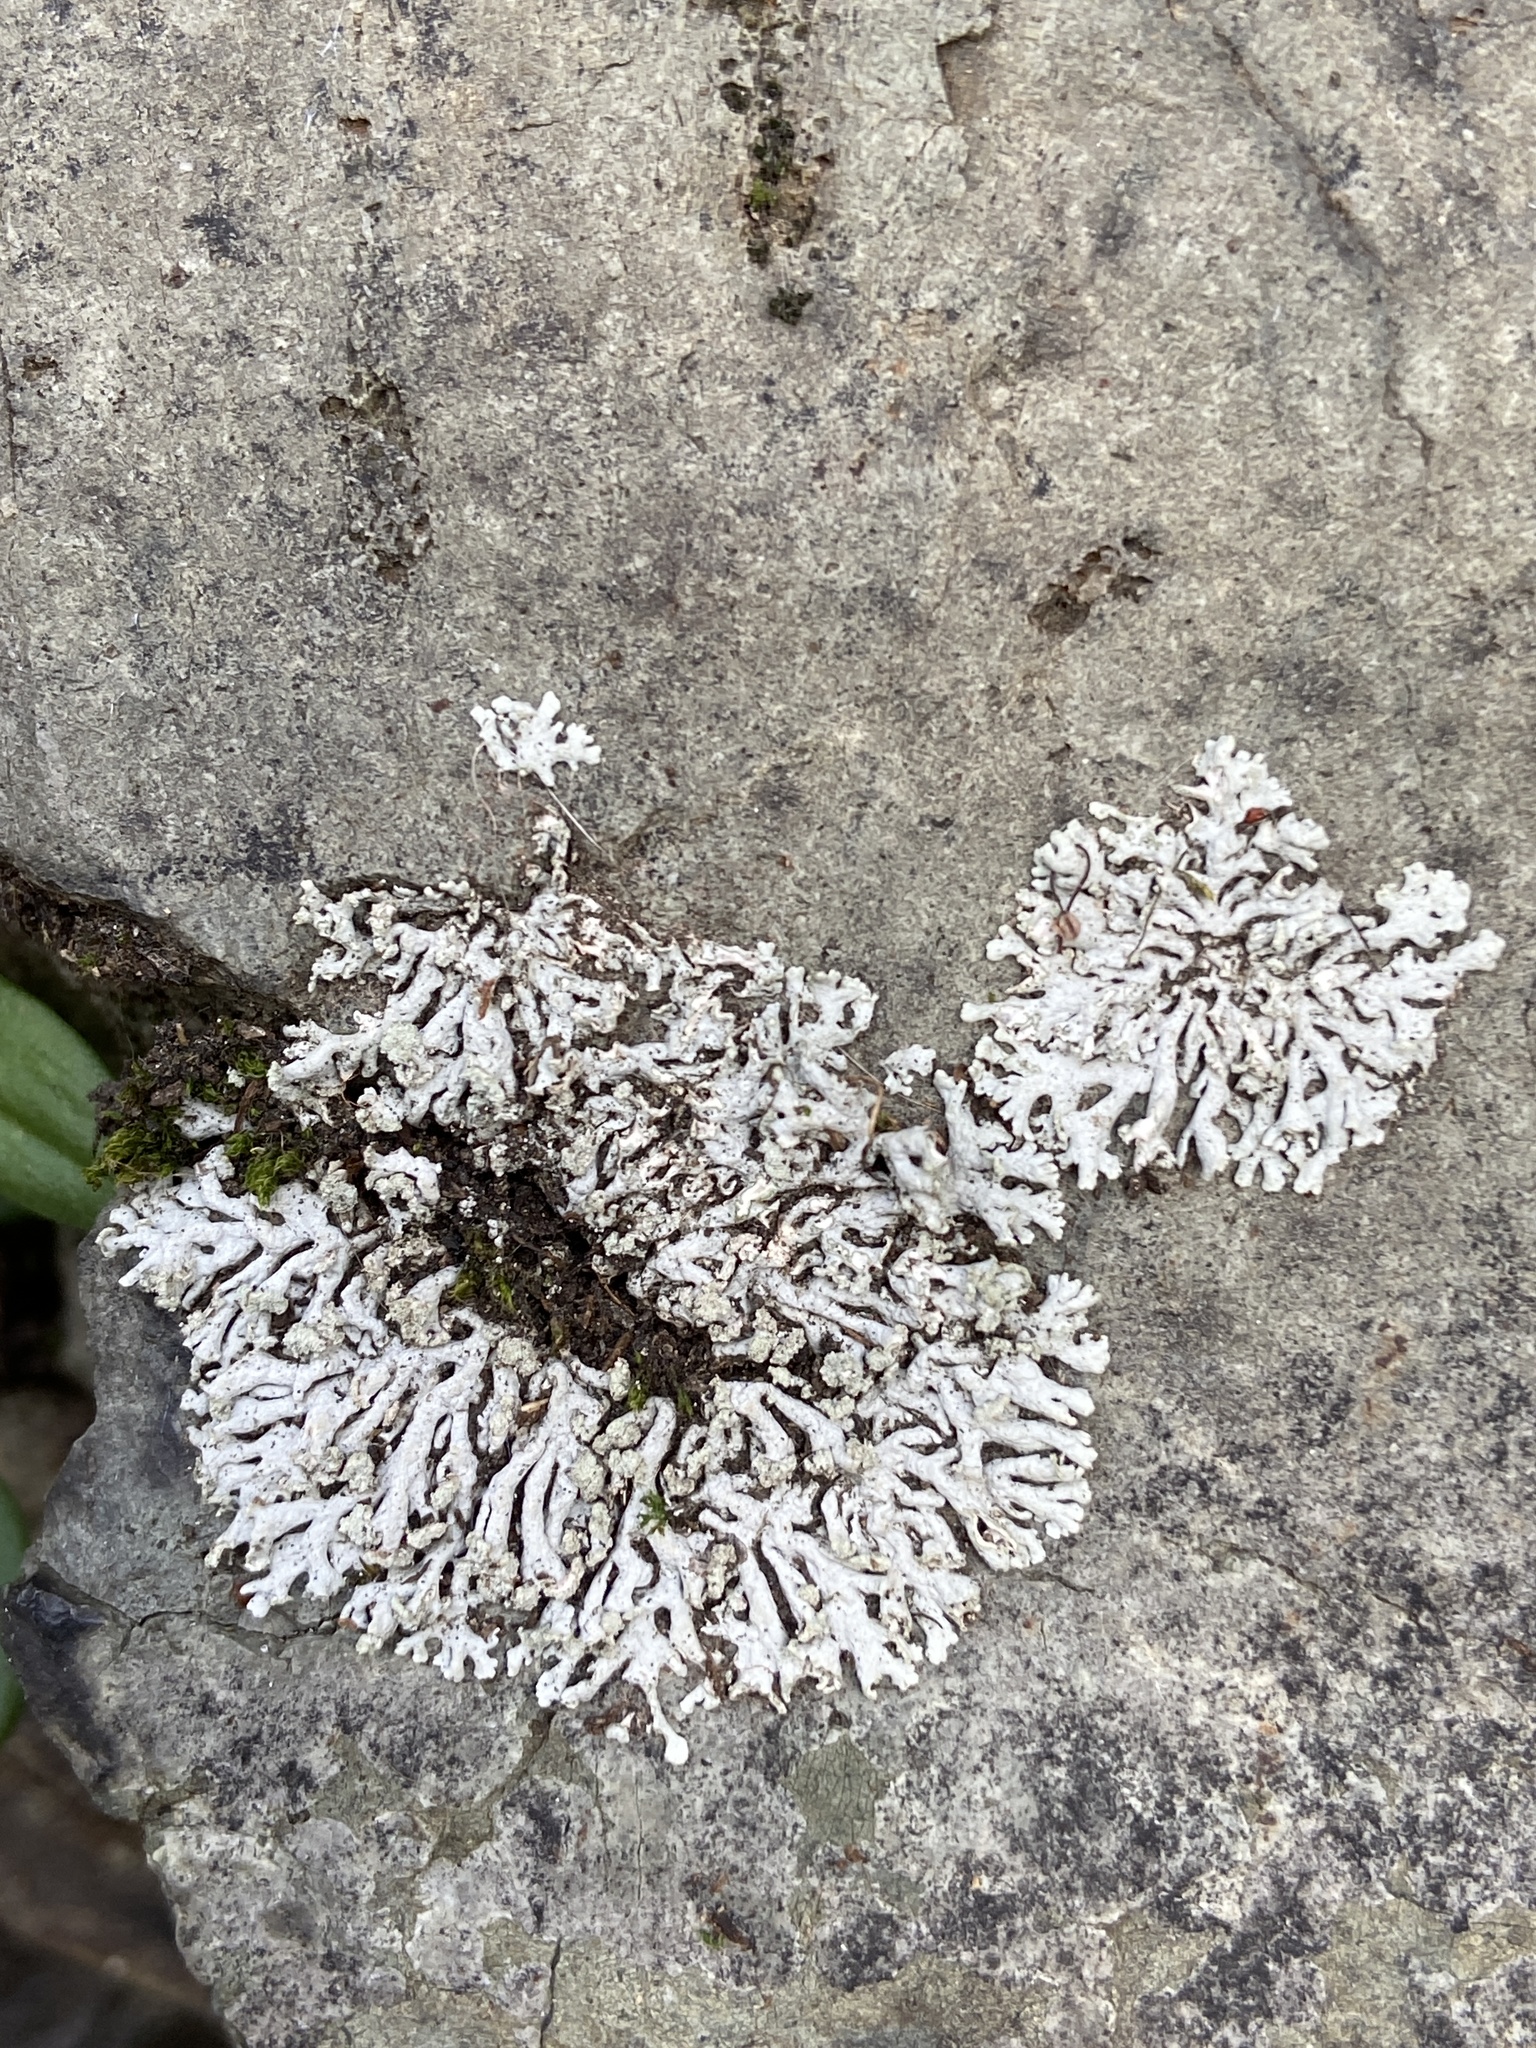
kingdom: Fungi
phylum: Ascomycota
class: Lecanoromycetes
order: Caliciales
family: Physciaceae
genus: Physcia
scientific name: Physcia caesia
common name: Blue-gray rosette lichen
